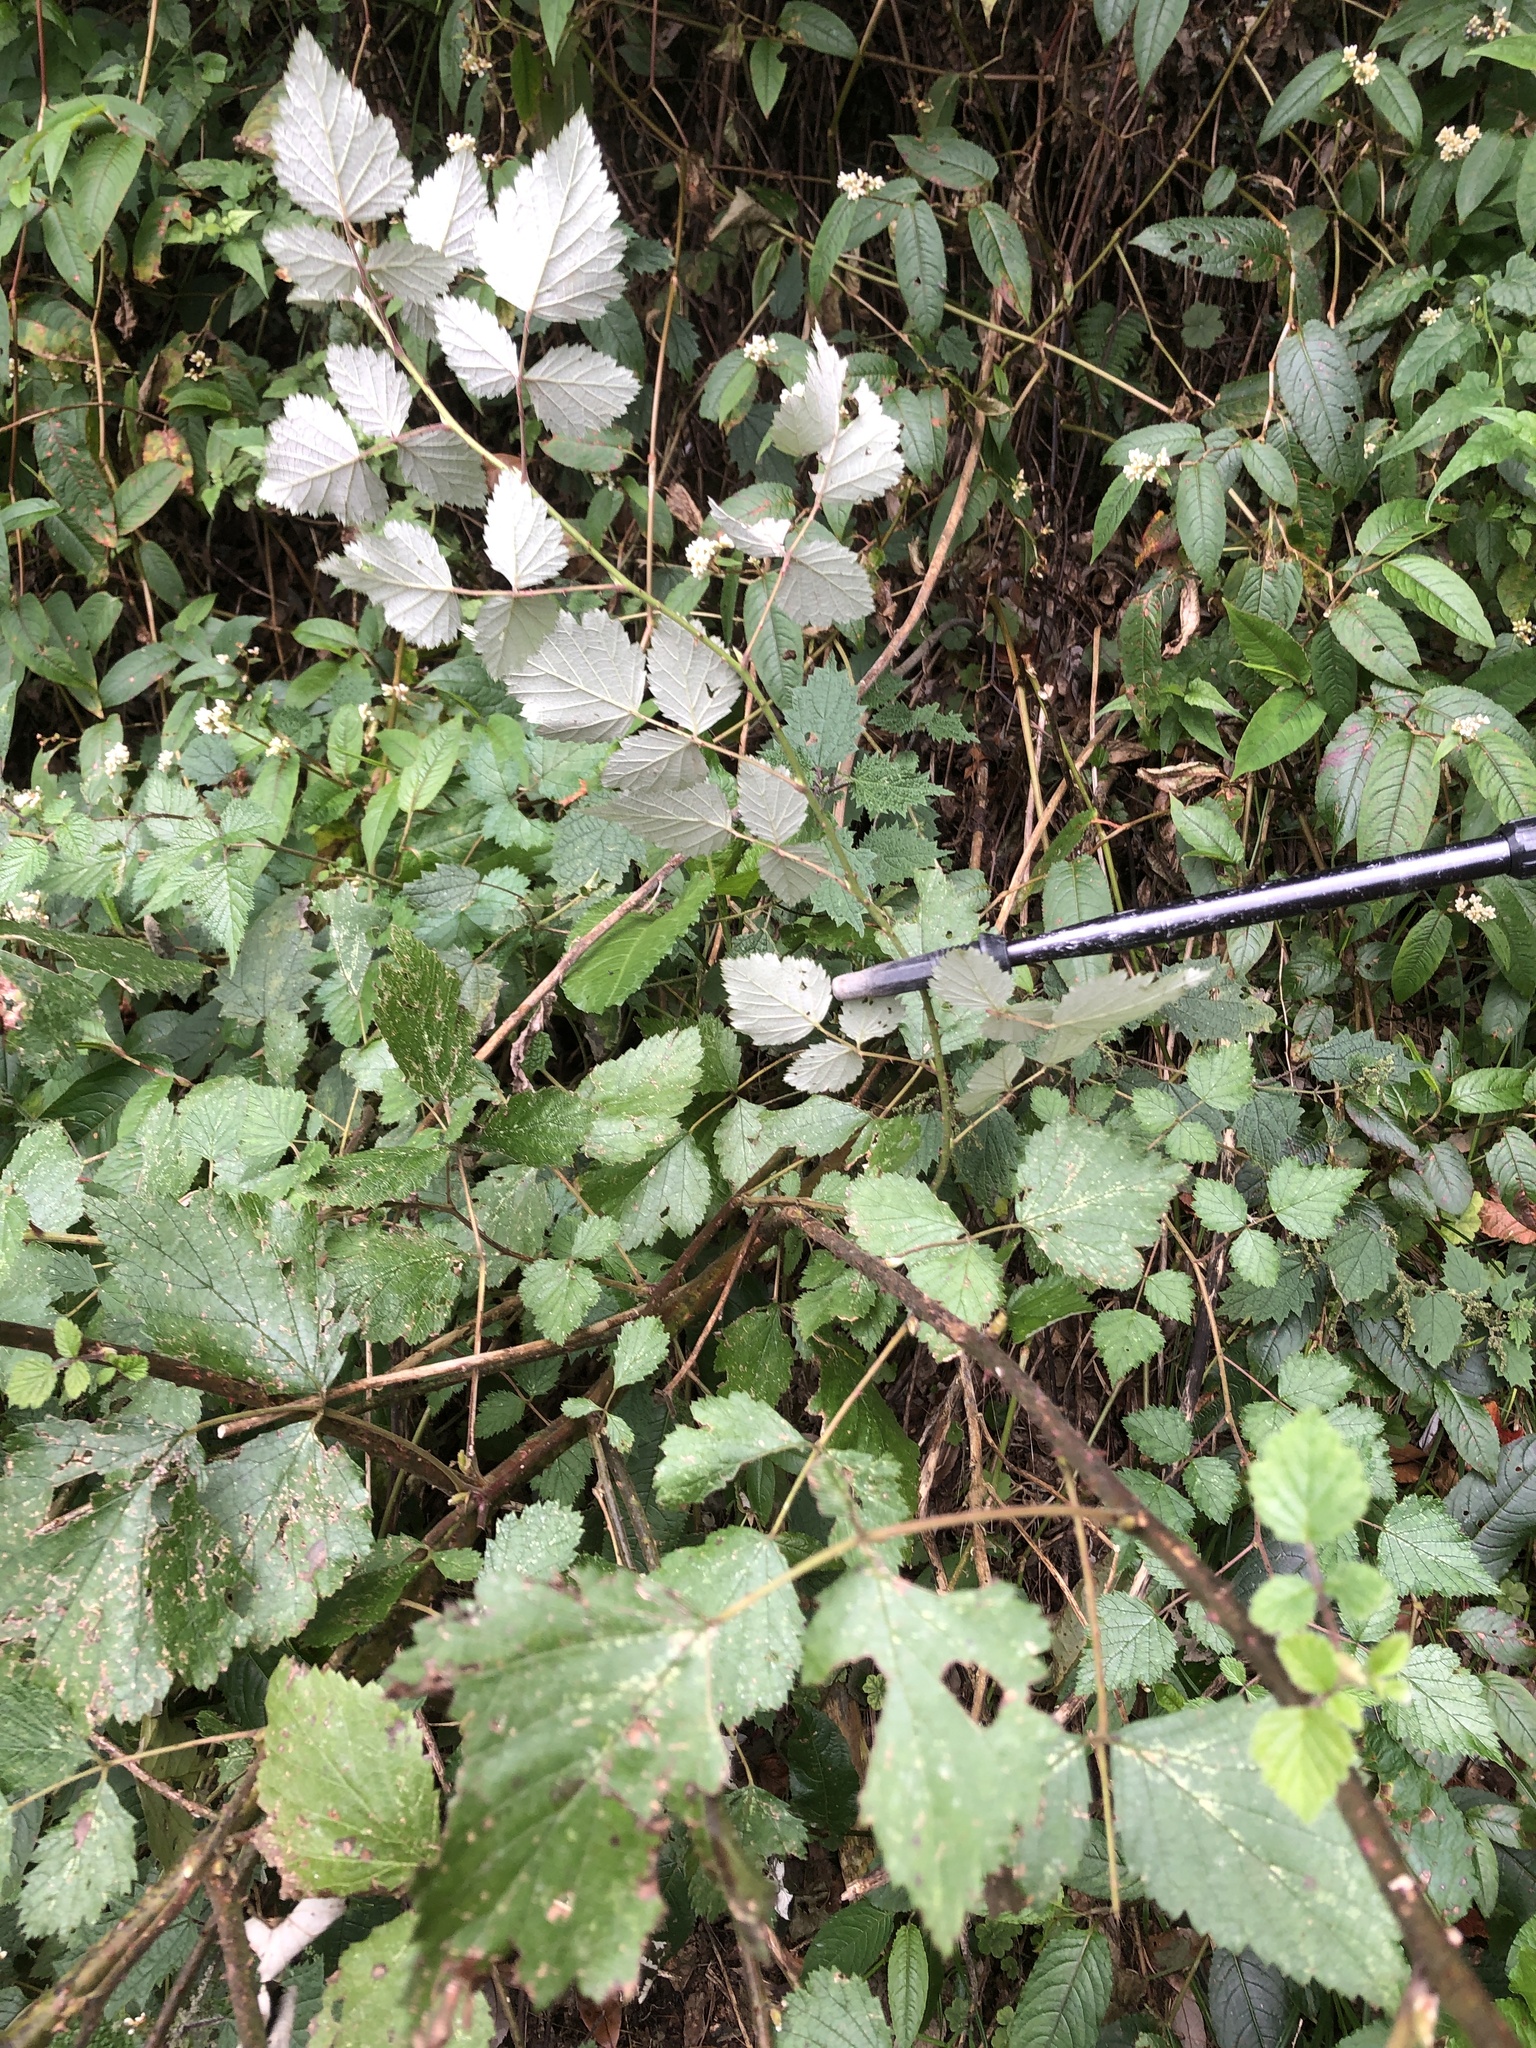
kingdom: Plantae
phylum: Tracheophyta
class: Magnoliopsida
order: Rosales
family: Rosaceae
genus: Rubus
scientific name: Rubus mesogaeus
